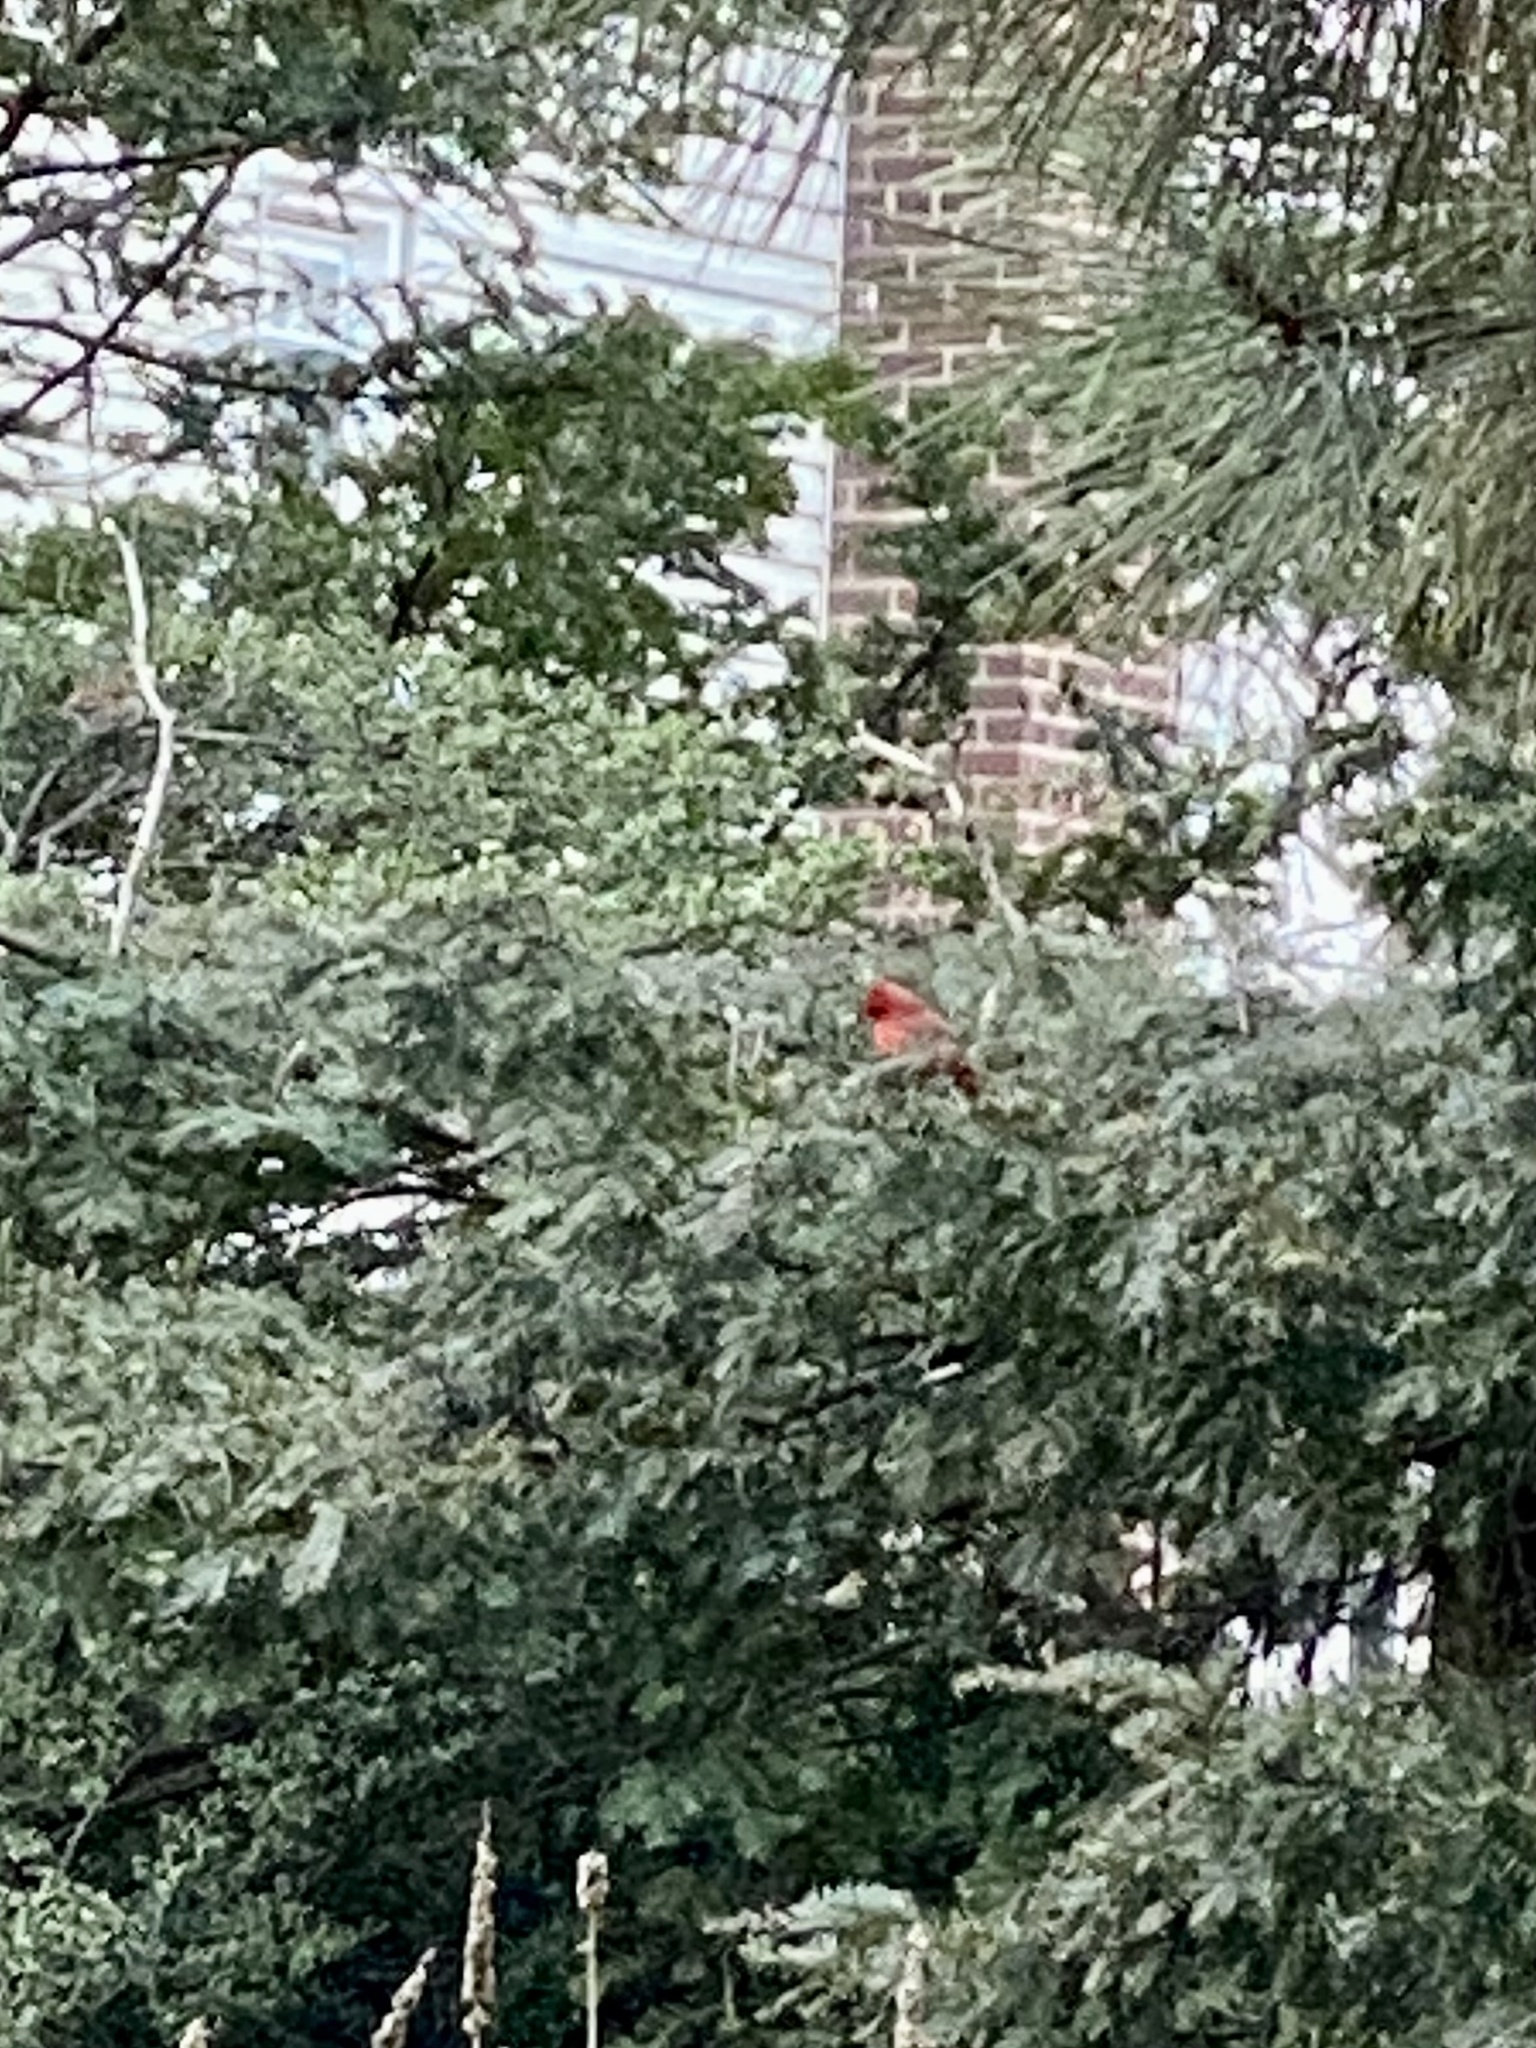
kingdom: Animalia
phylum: Chordata
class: Aves
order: Passeriformes
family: Cardinalidae
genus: Cardinalis
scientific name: Cardinalis cardinalis
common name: Northern cardinal
